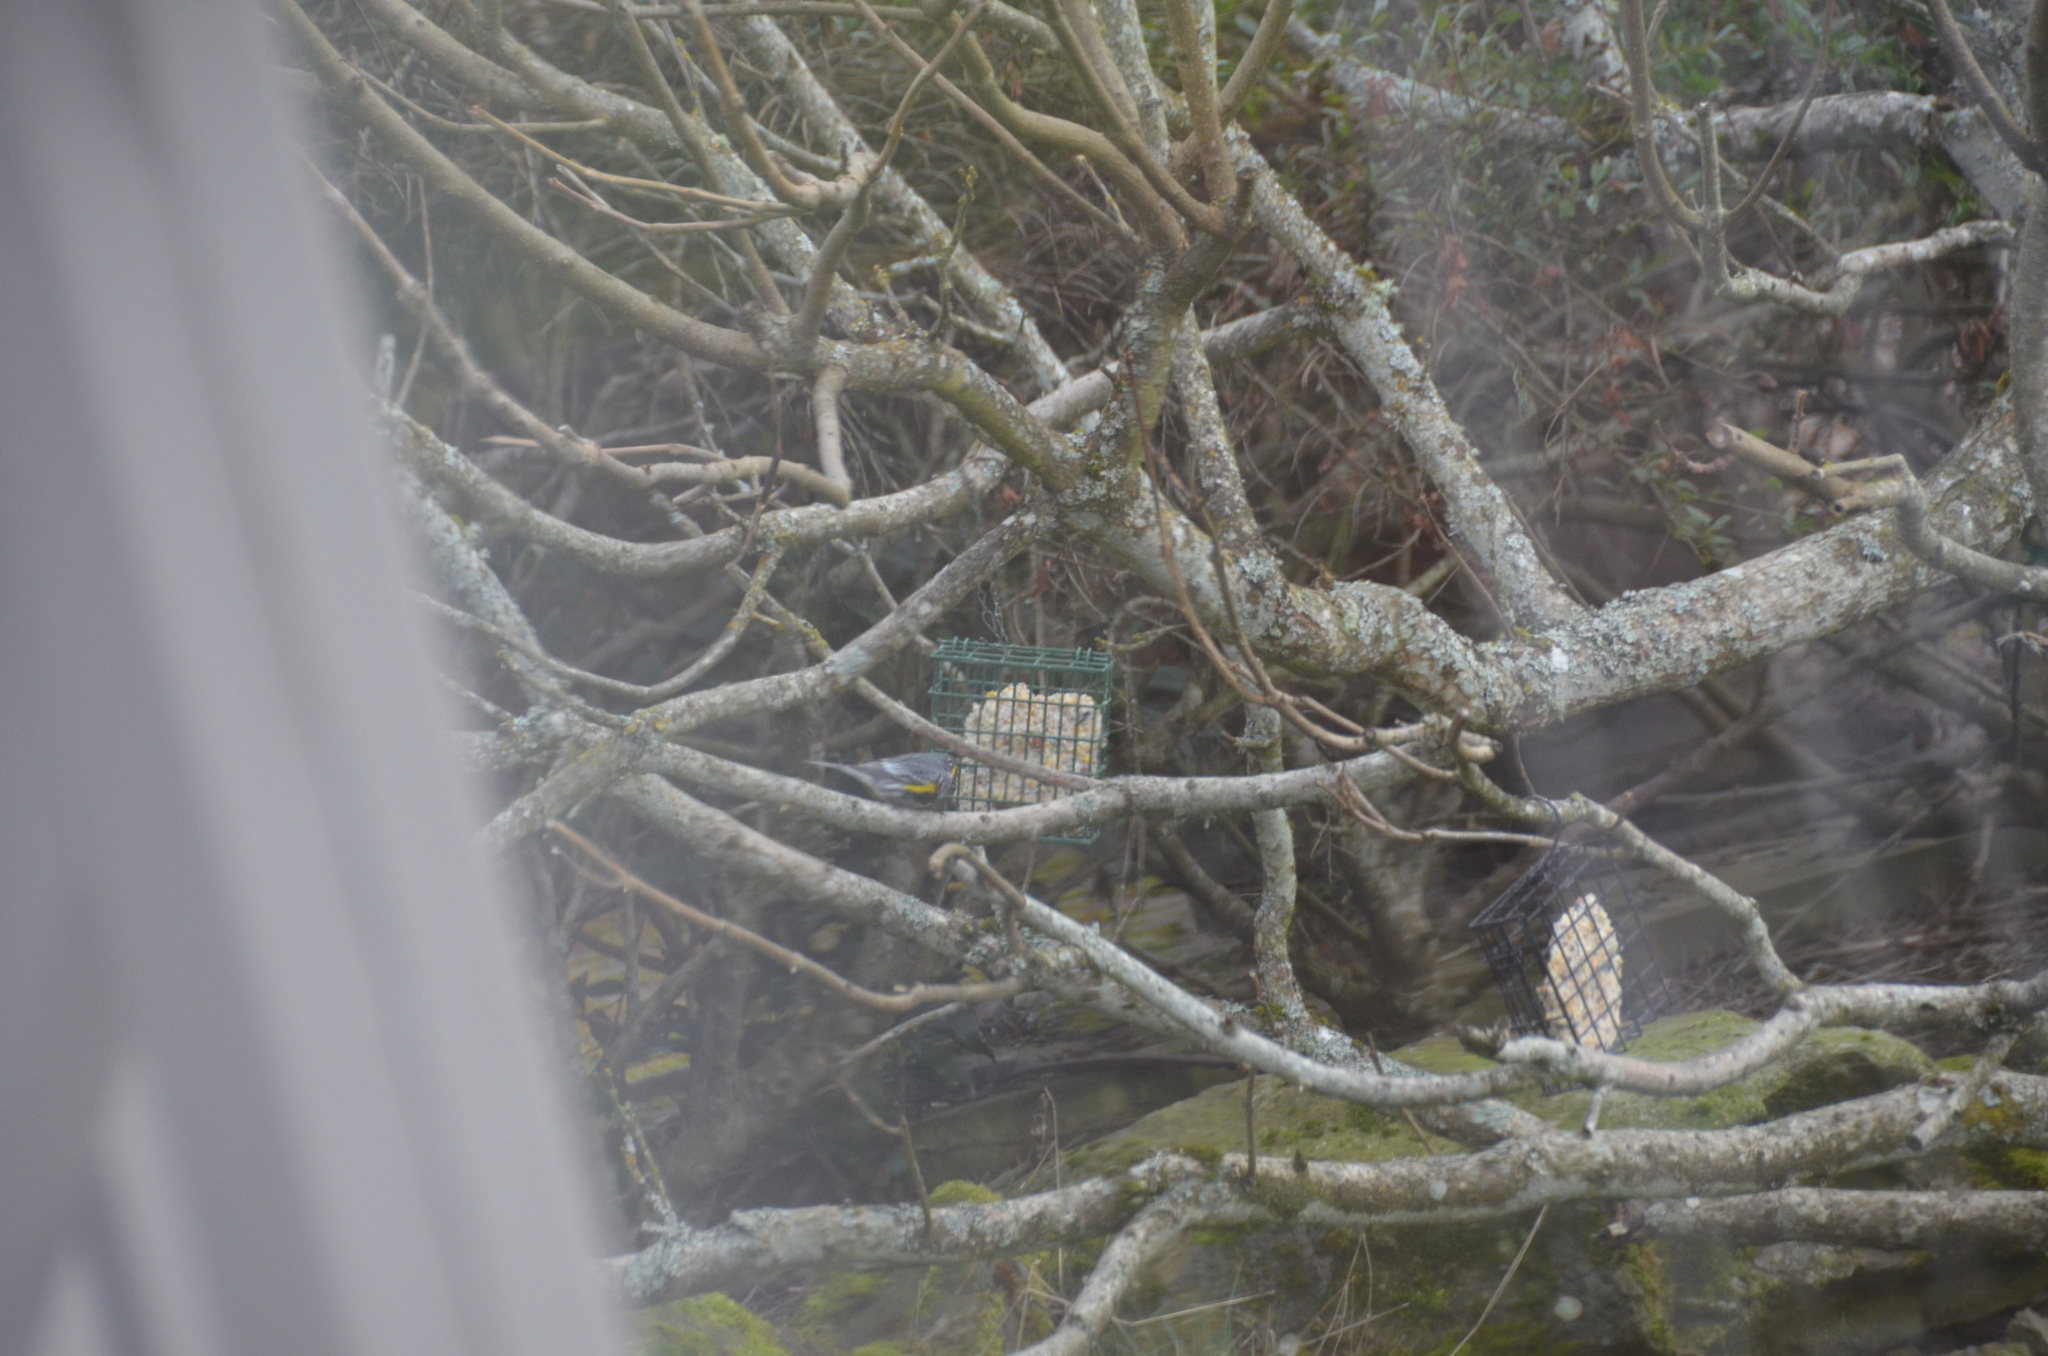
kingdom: Animalia
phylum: Chordata
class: Aves
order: Passeriformes
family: Parulidae
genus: Setophaga
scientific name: Setophaga auduboni
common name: Audubon's warbler
